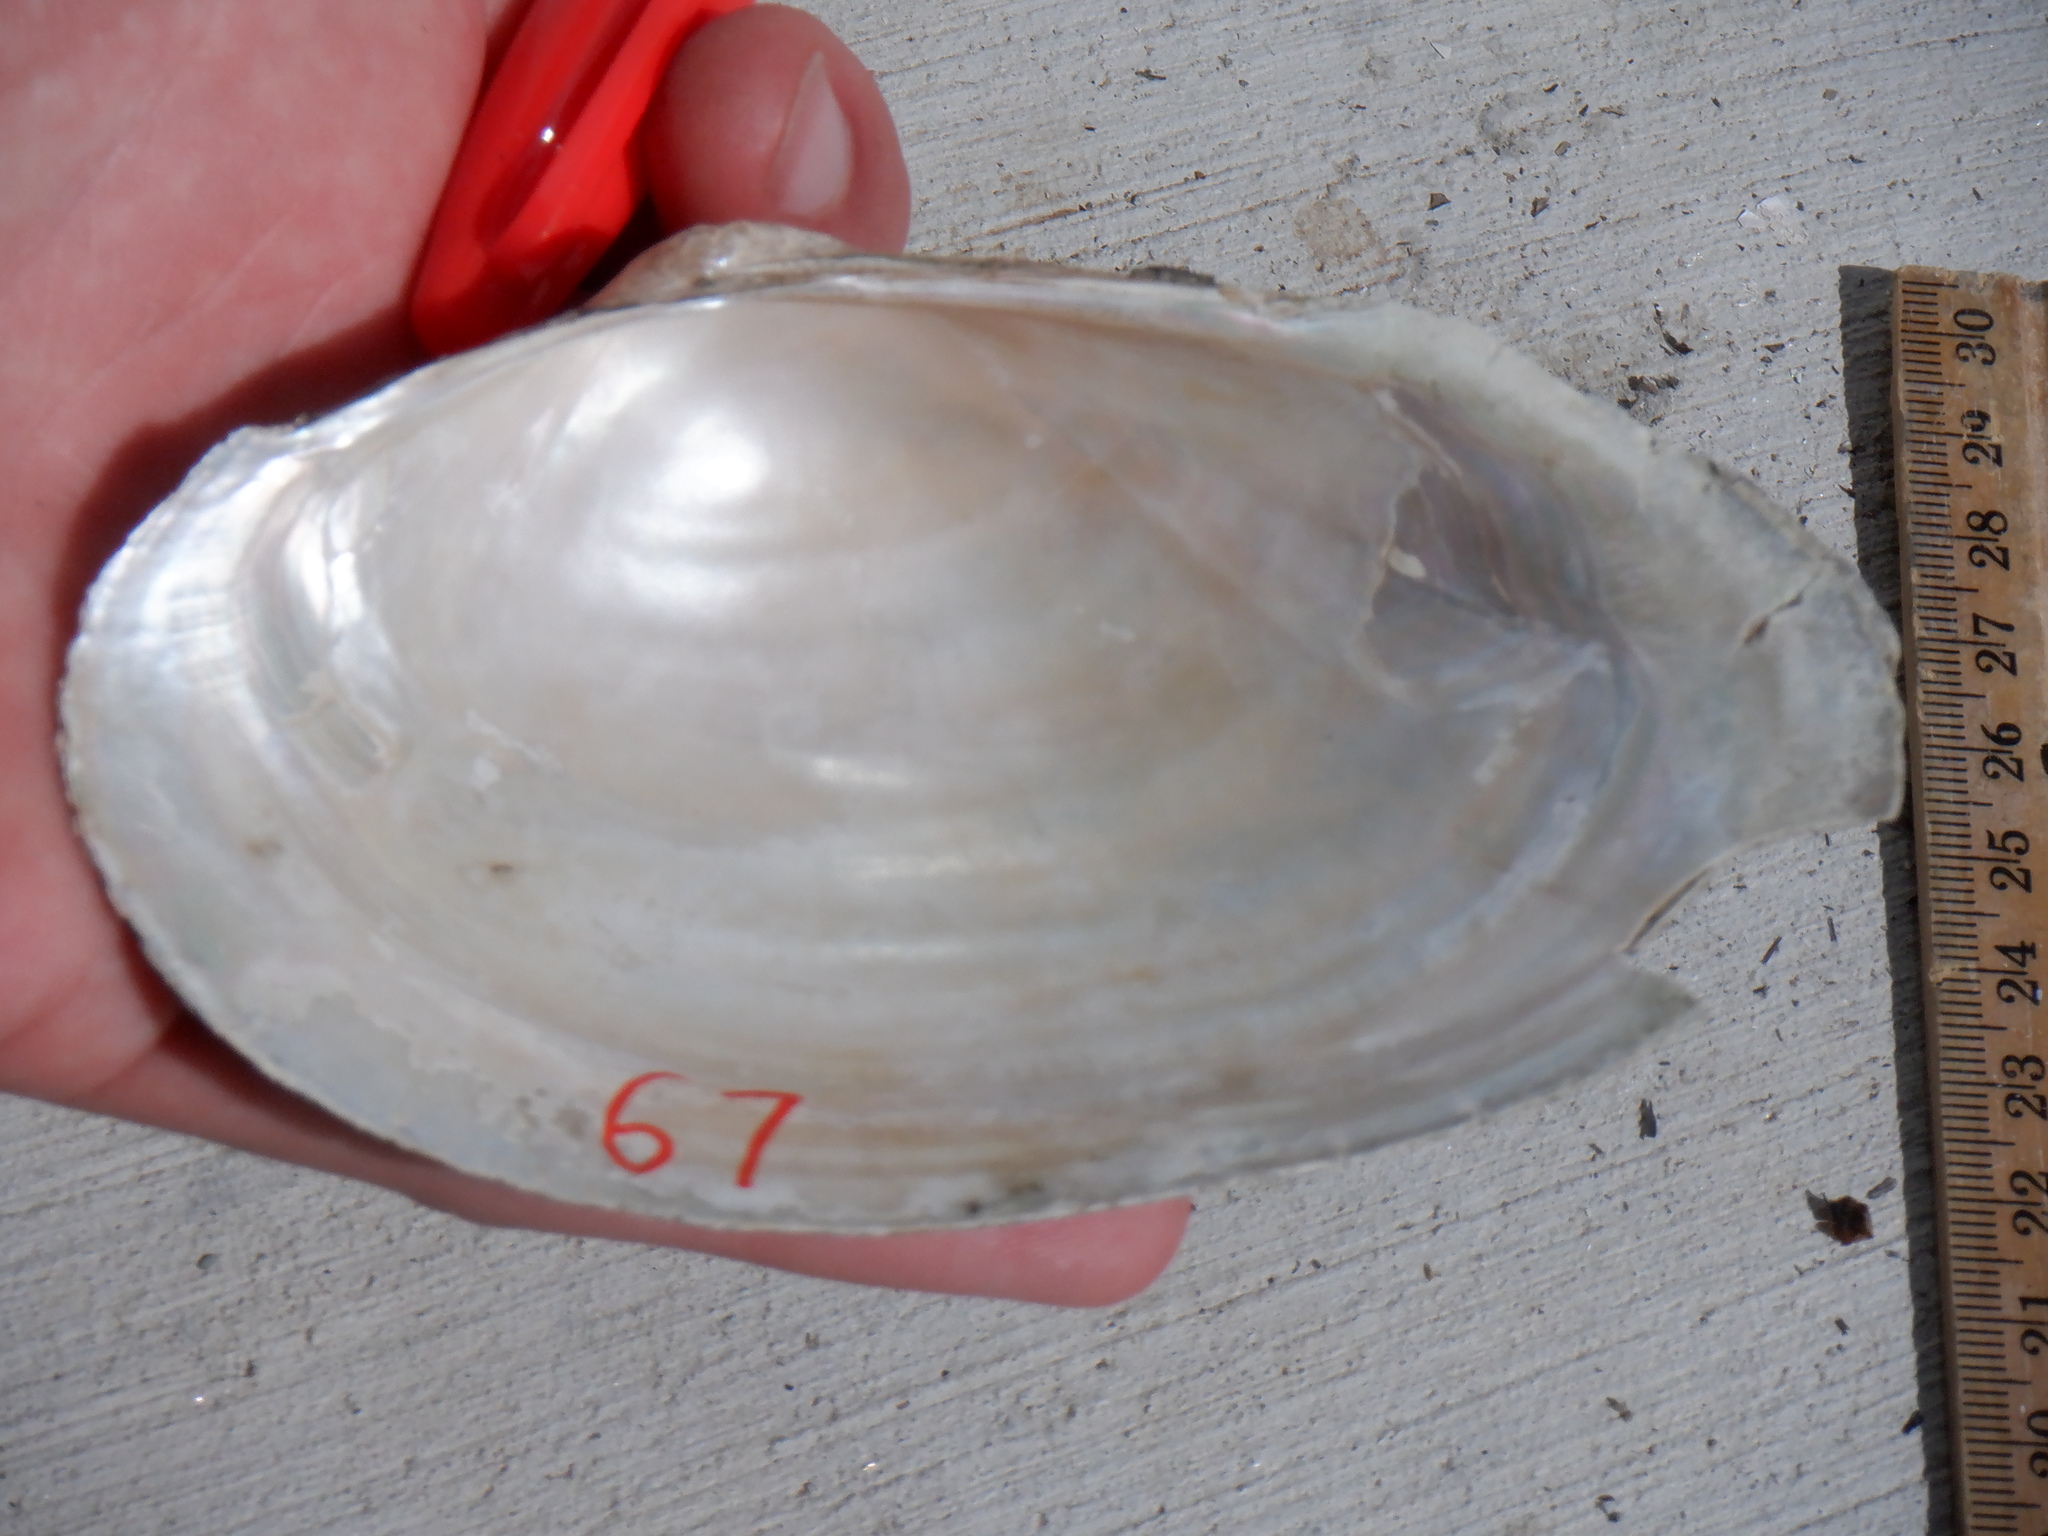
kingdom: Animalia
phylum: Mollusca
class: Bivalvia
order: Unionida
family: Unionidae
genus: Pyganodon
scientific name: Pyganodon grandis
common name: Giant floater
